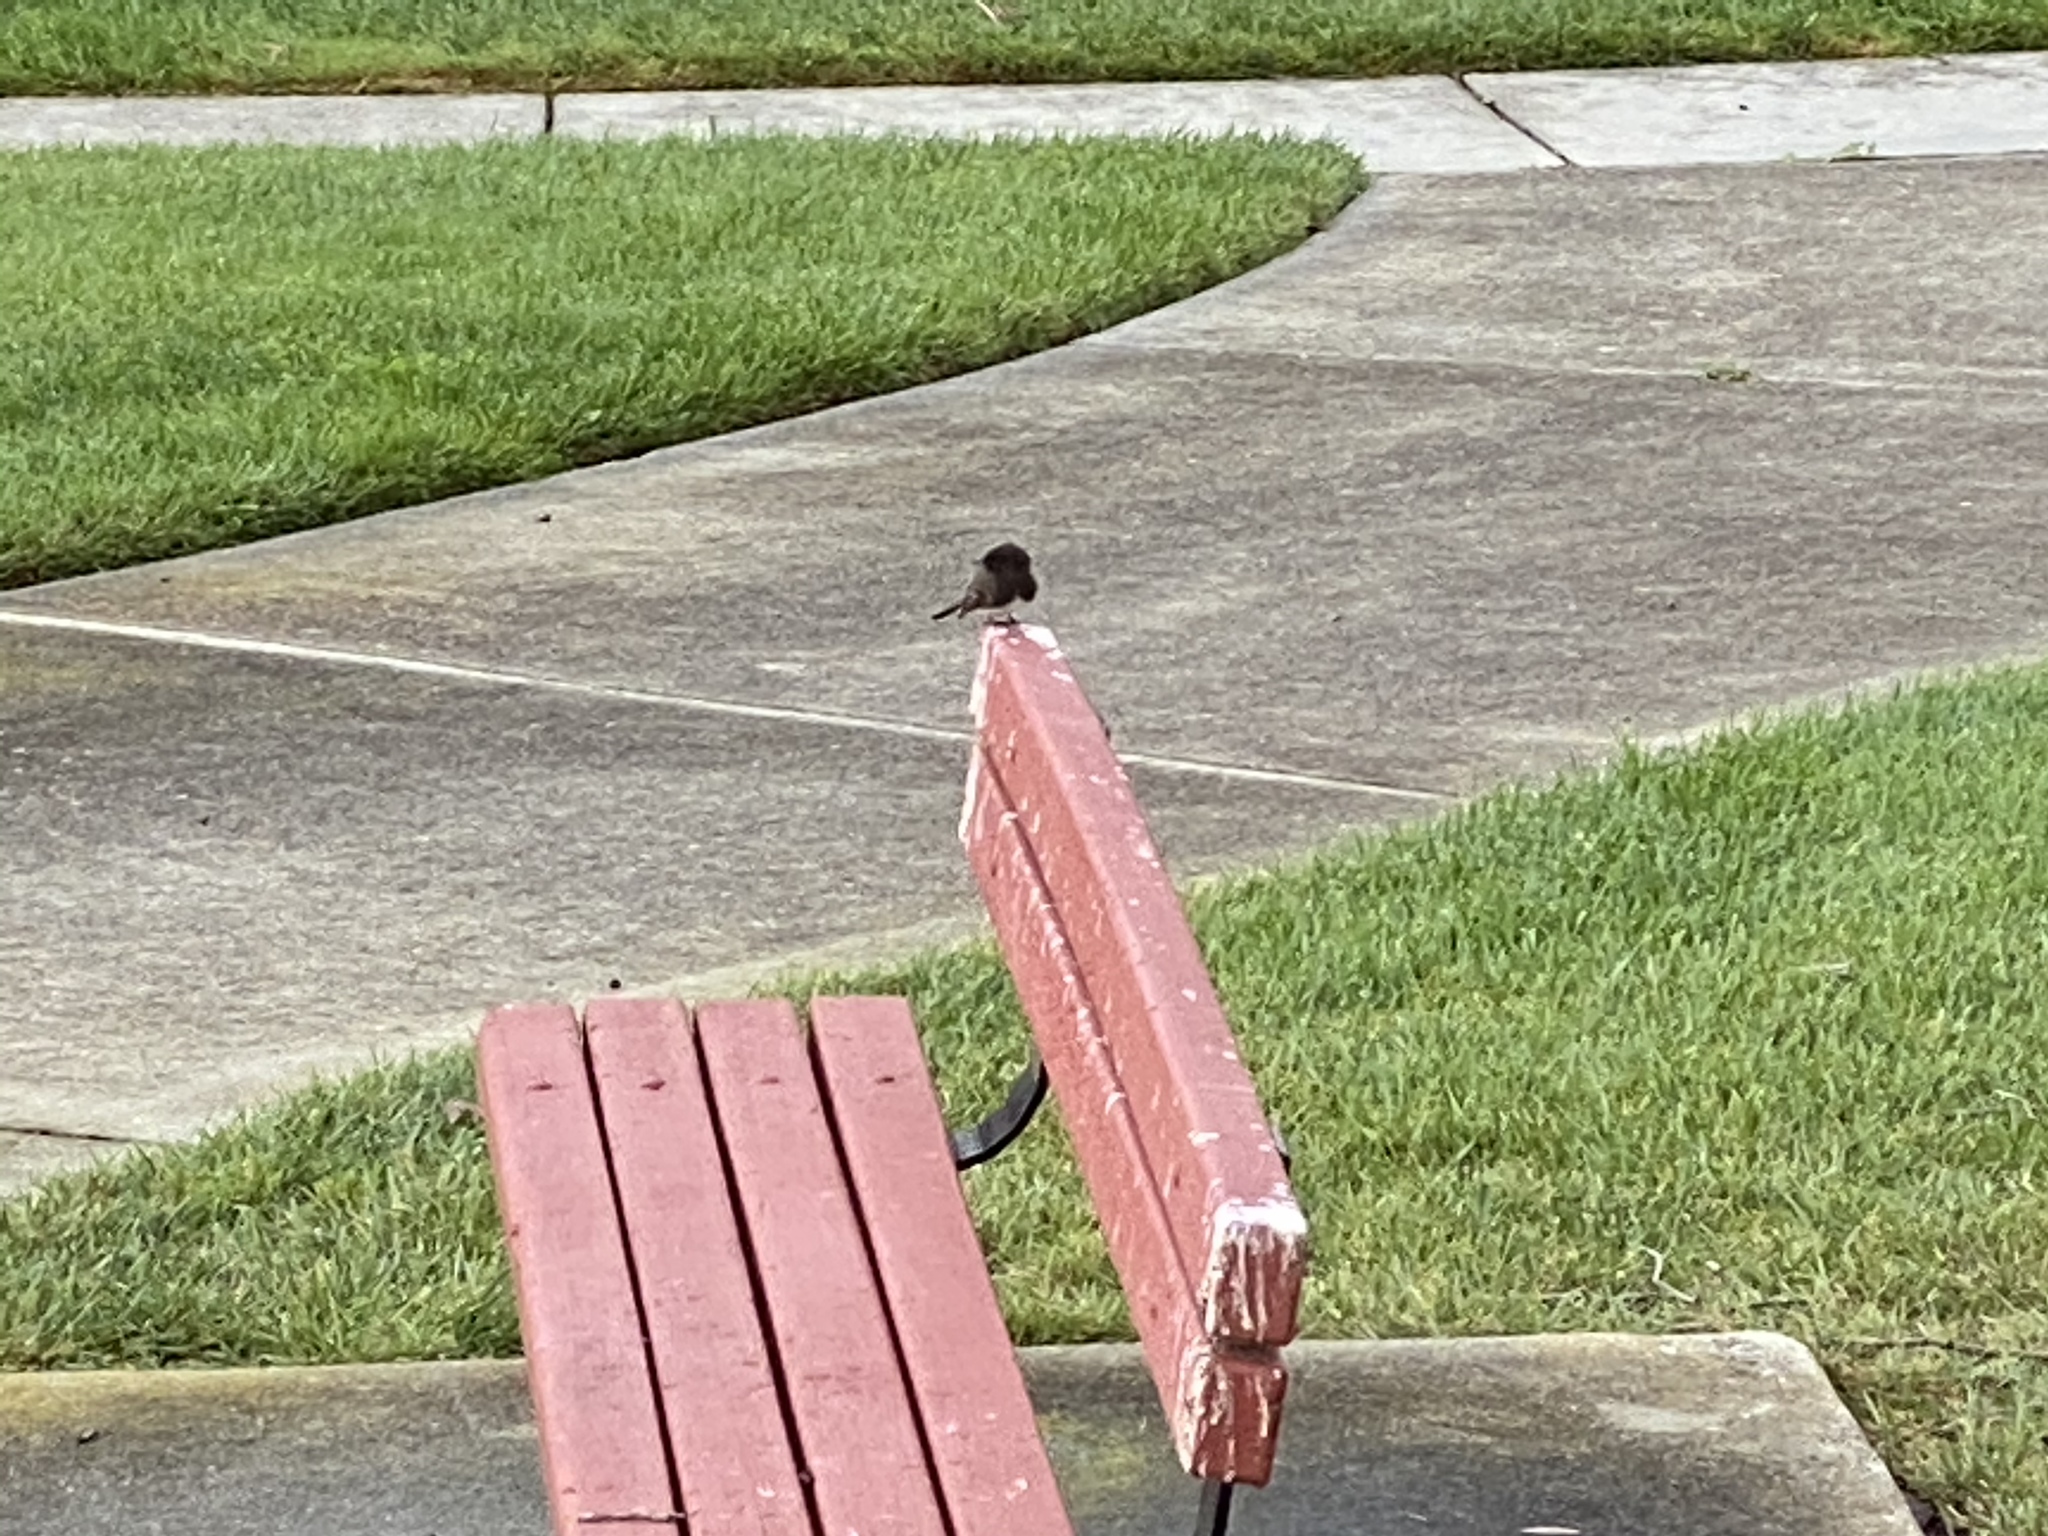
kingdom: Animalia
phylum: Chordata
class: Aves
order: Passeriformes
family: Tyrannidae
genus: Sayornis
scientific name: Sayornis nigricans
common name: Black phoebe
